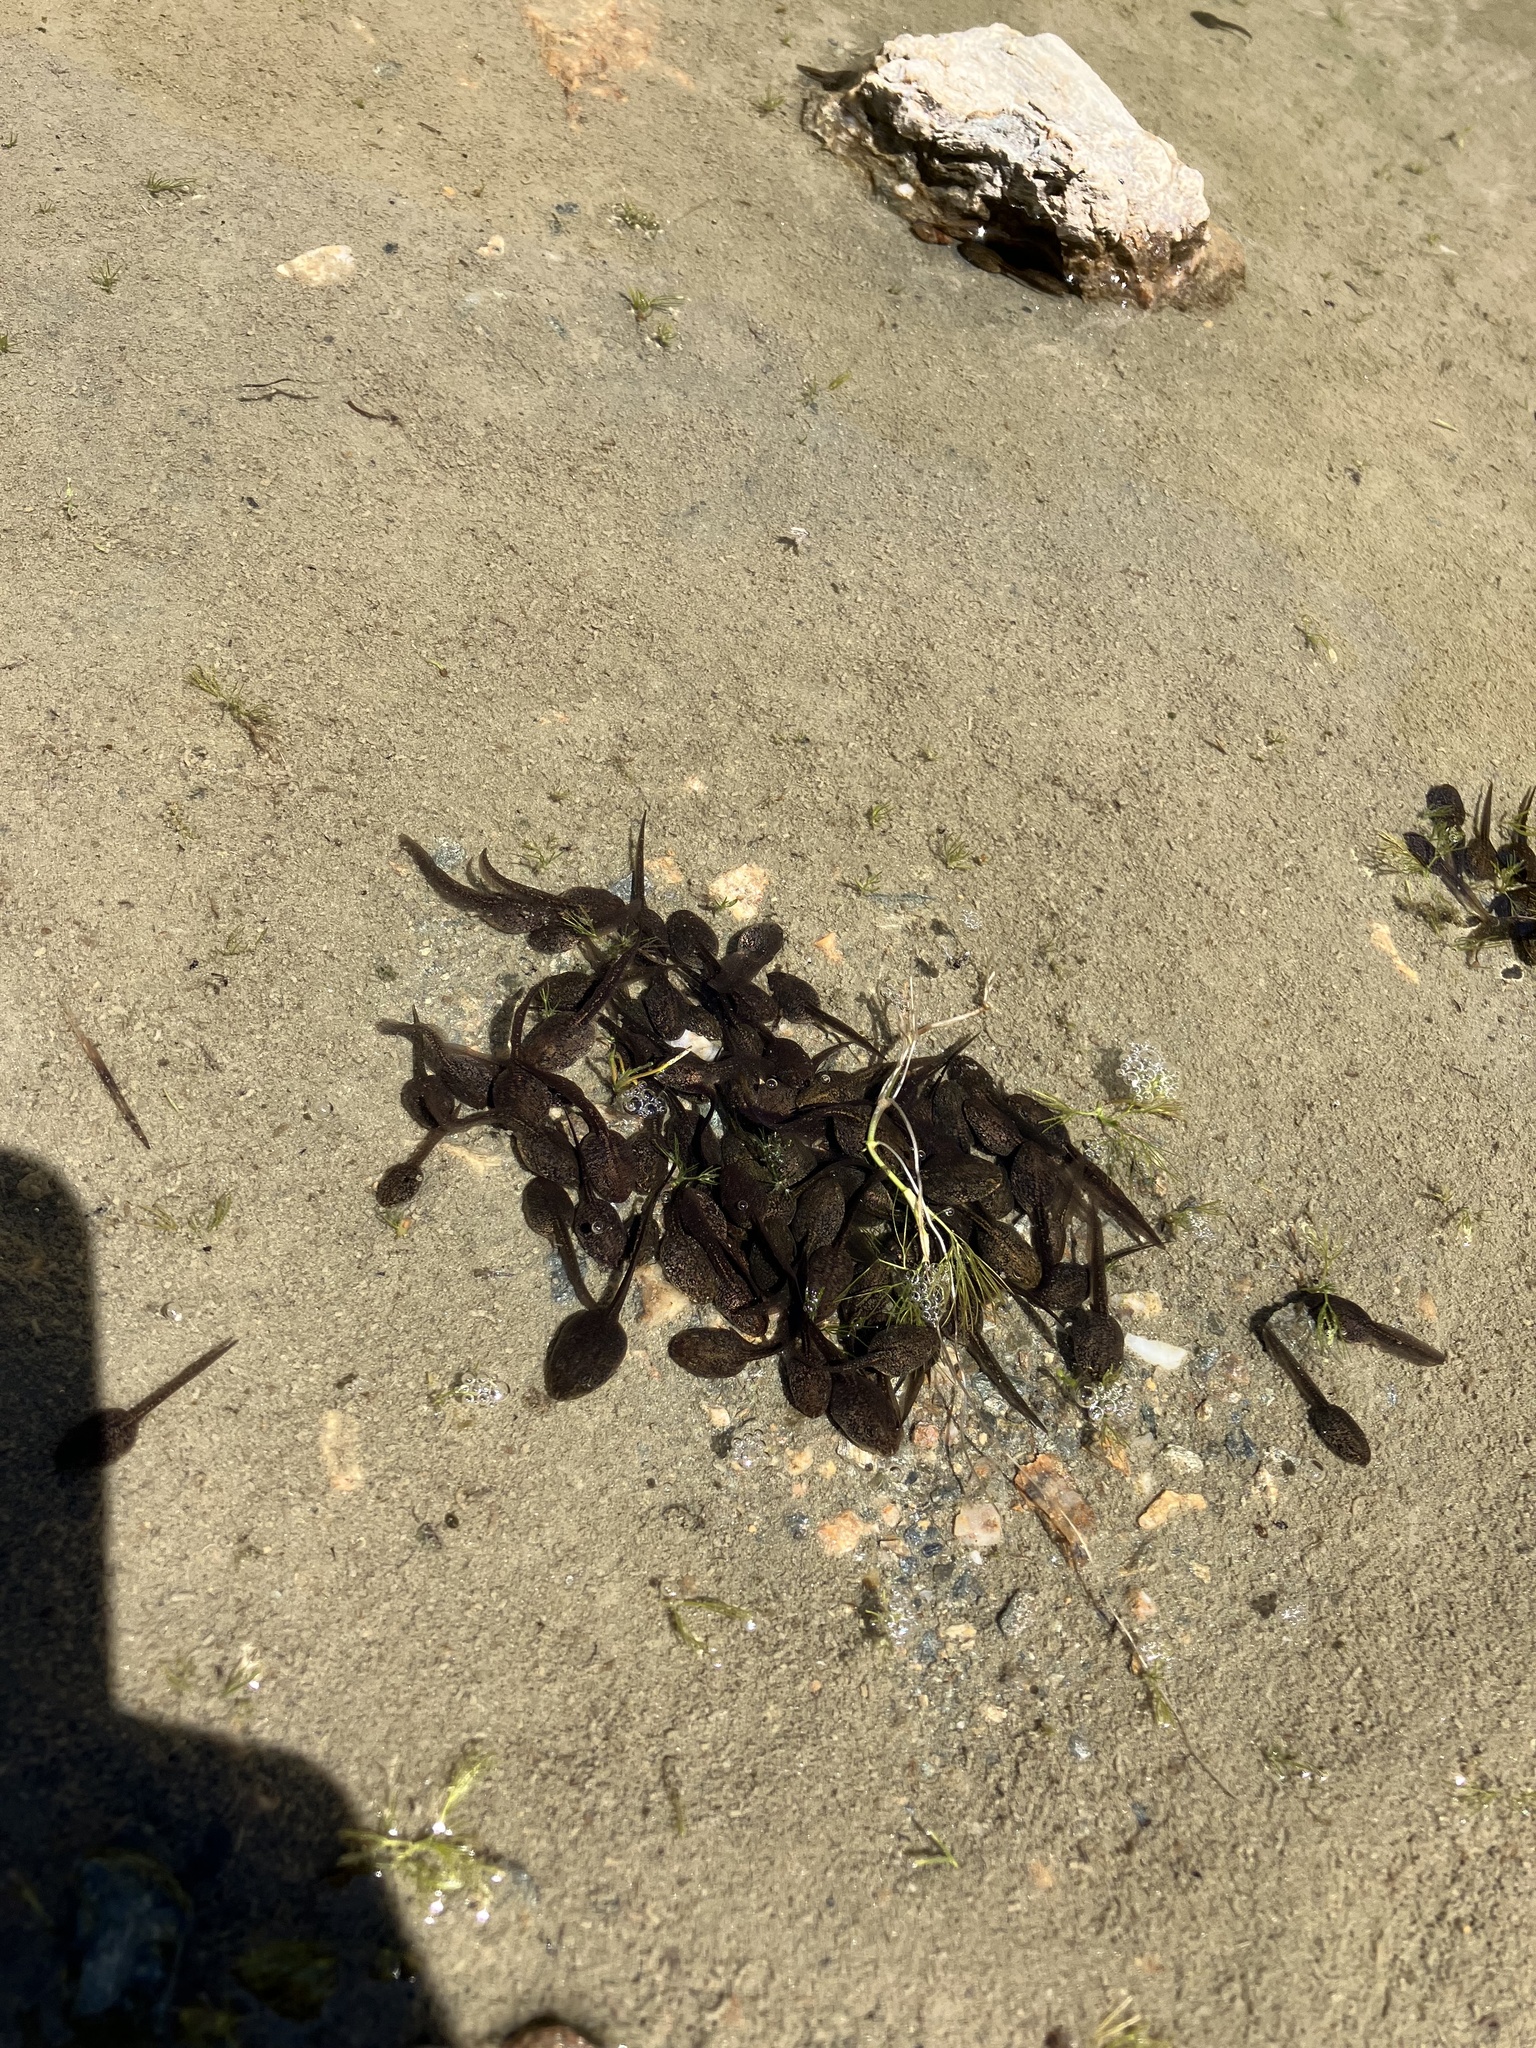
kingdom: Animalia
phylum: Chordata
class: Amphibia
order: Anura
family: Ranidae
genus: Rana
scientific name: Rana temporaria
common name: Common frog
